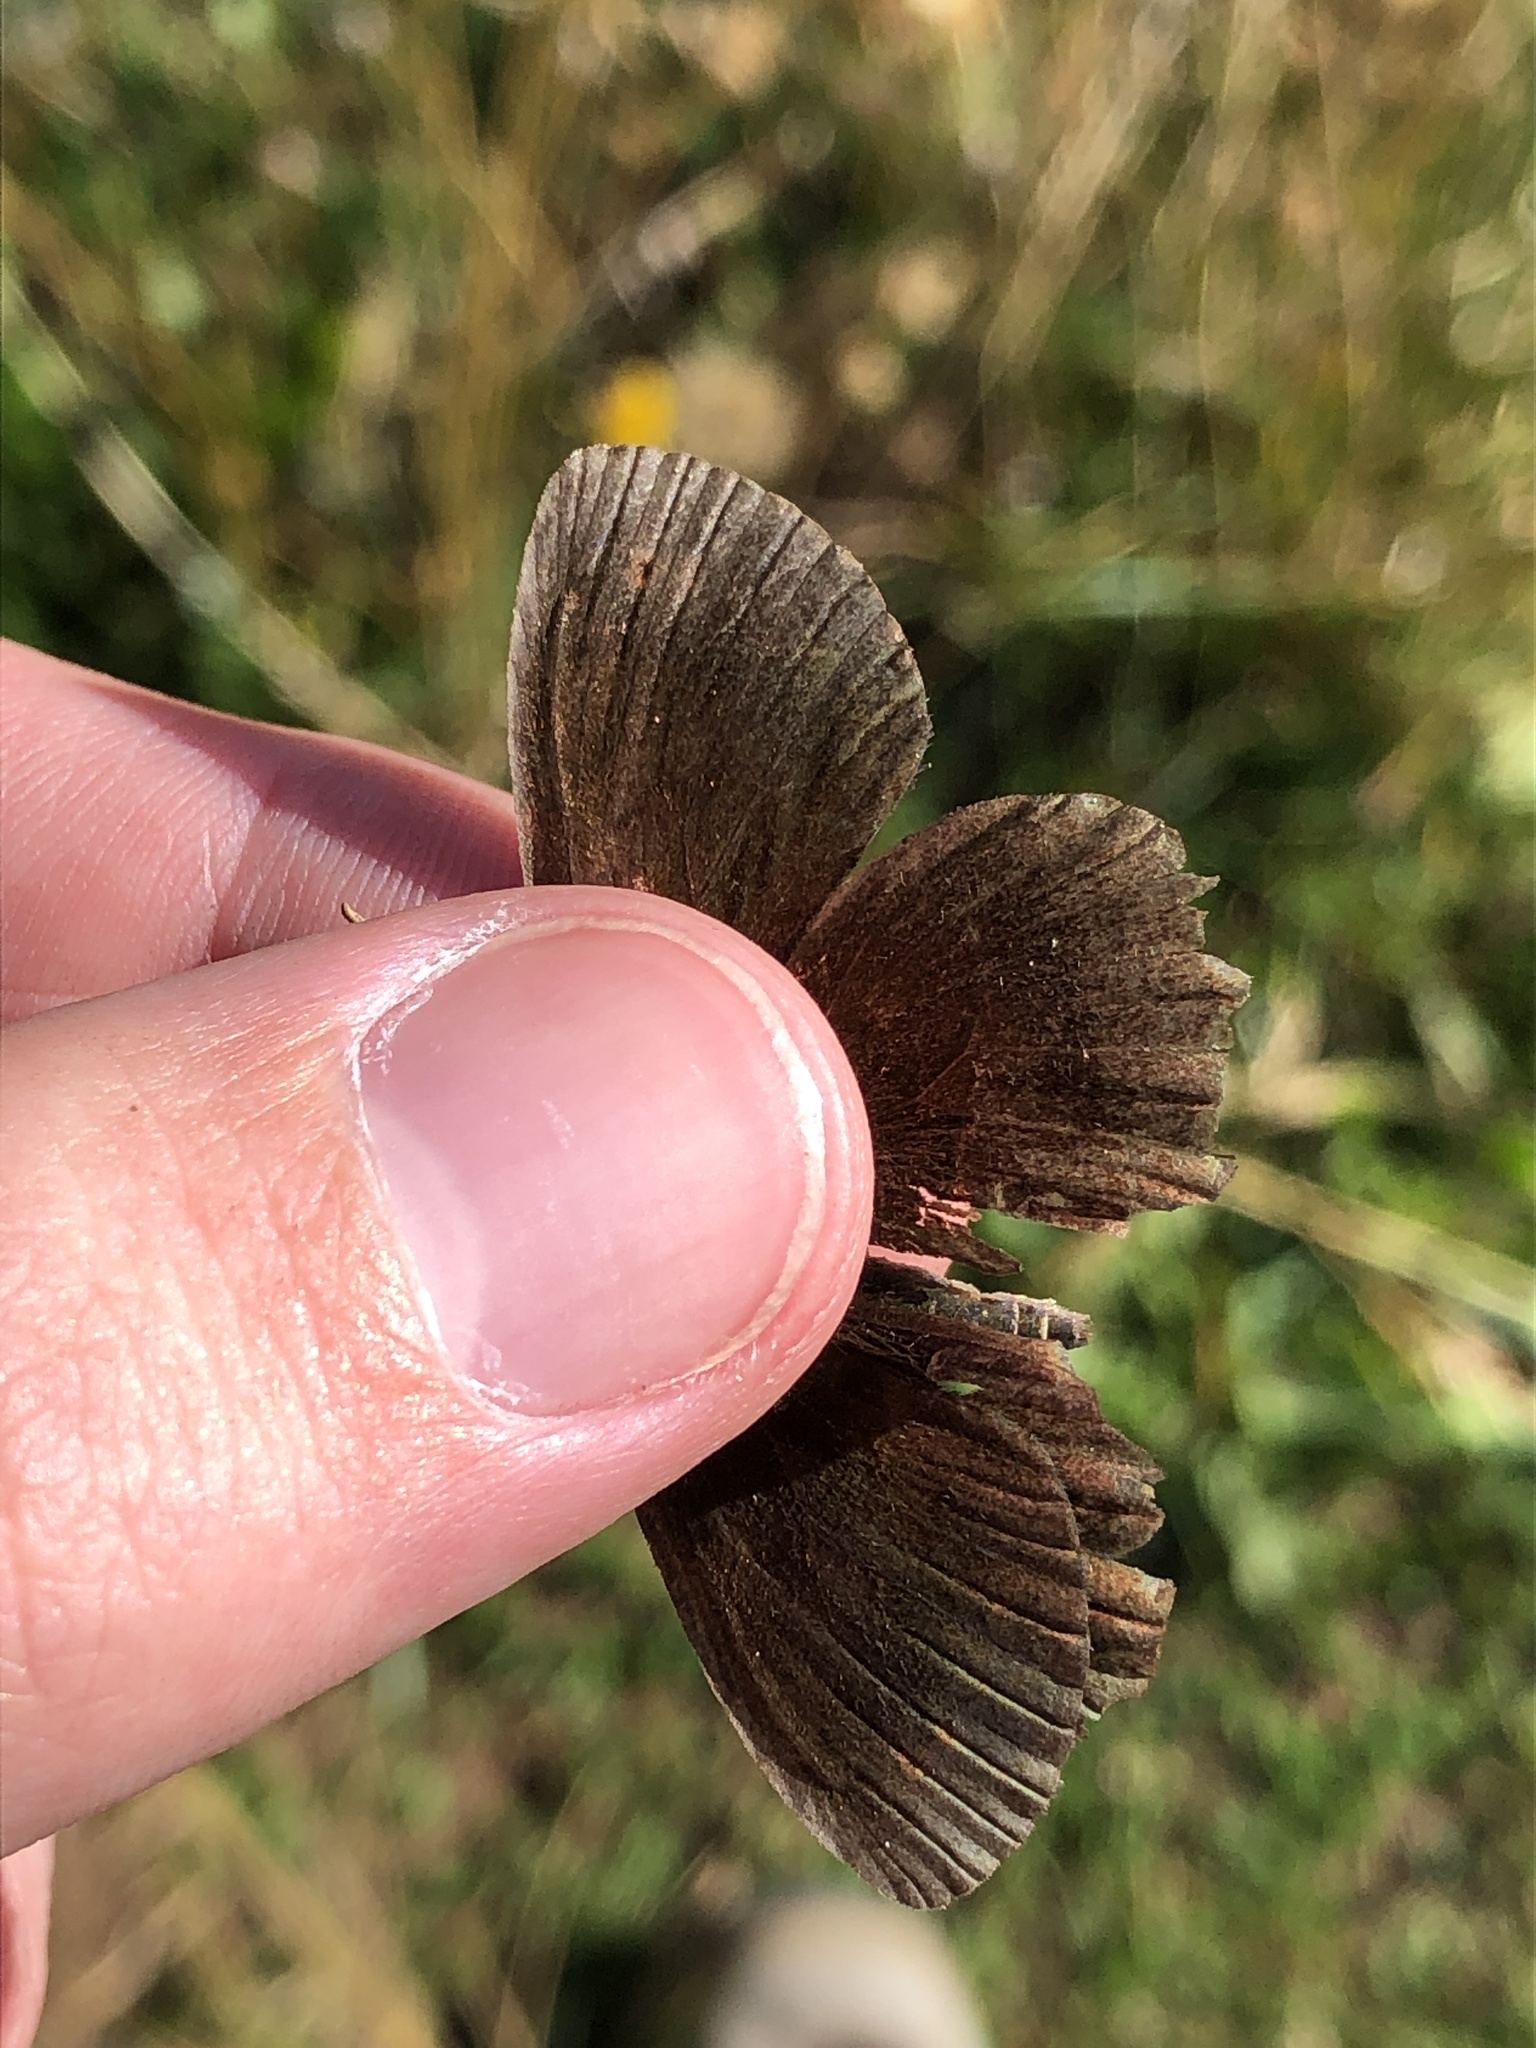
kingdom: Animalia
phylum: Arthropoda
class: Insecta
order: Lepidoptera
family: Nymphalidae
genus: Erebia
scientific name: Erebia pronoe
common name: Water ringlet
